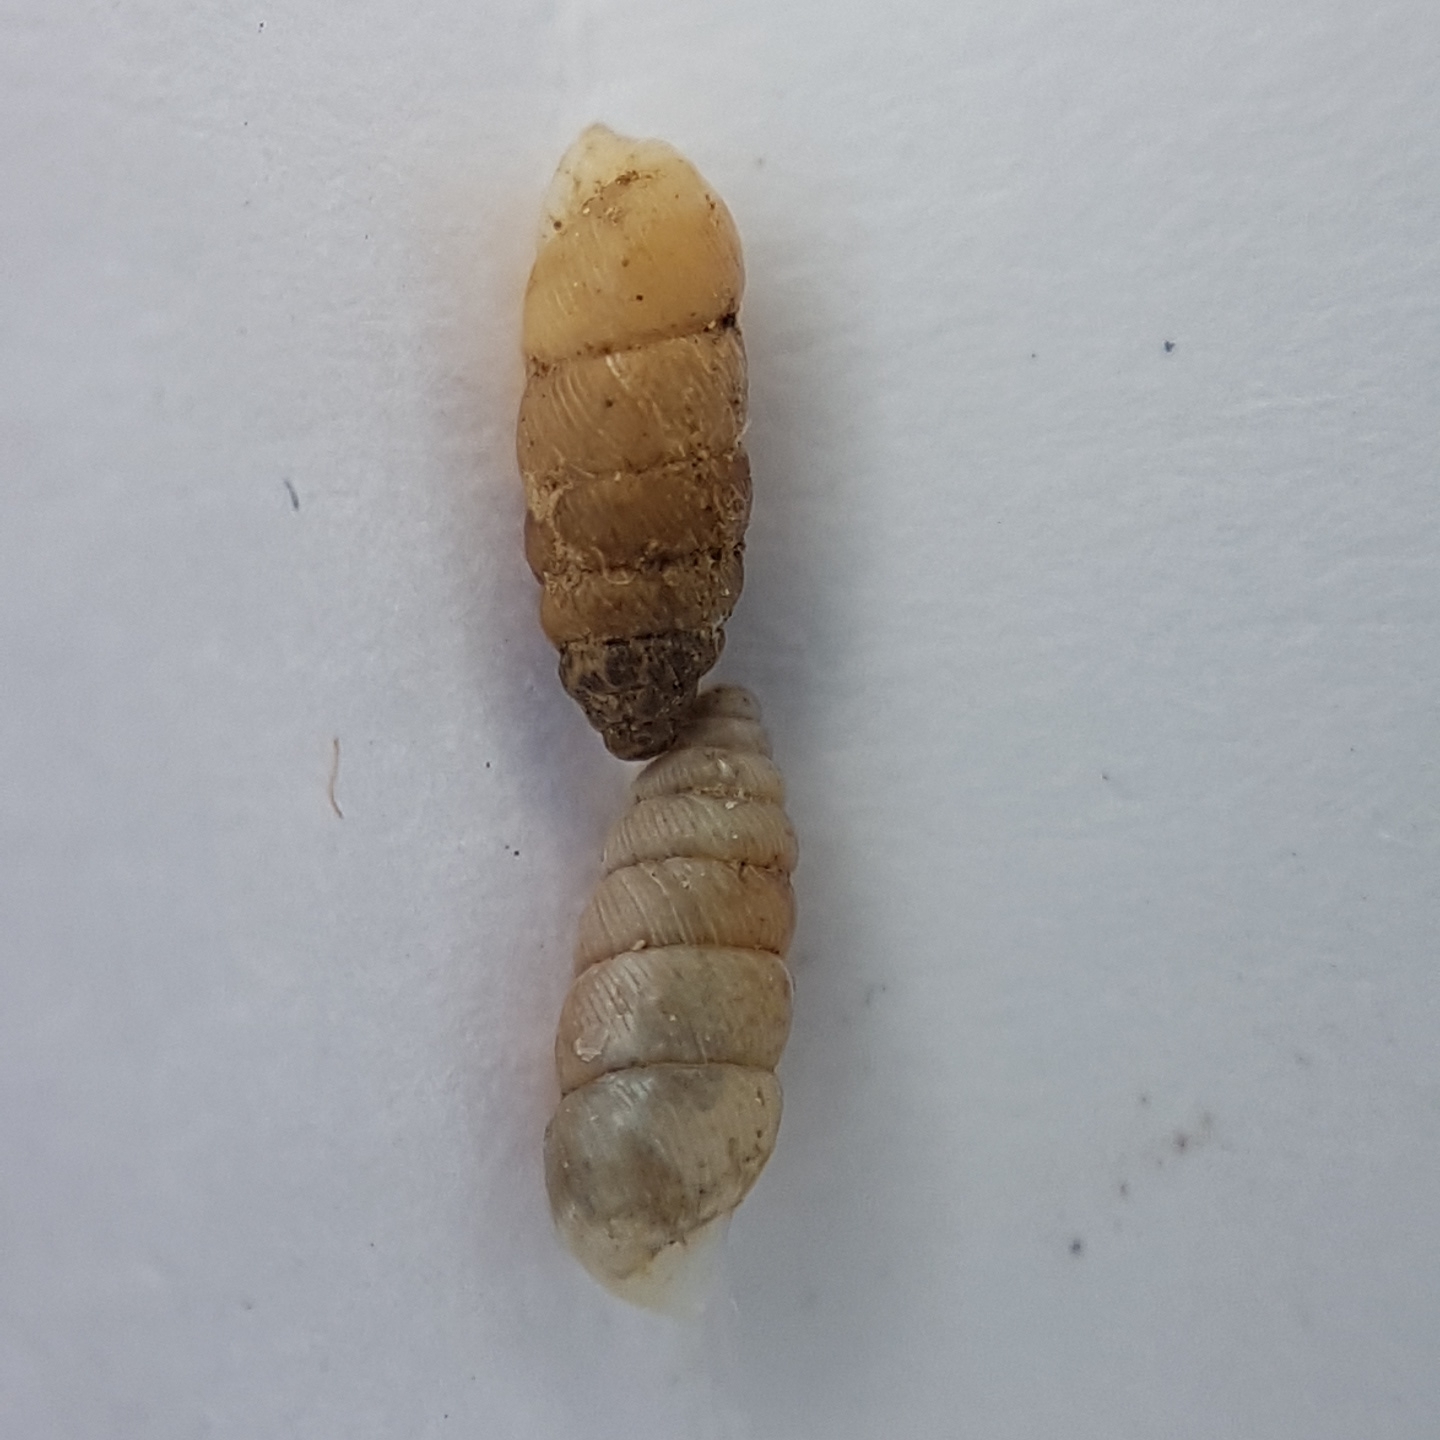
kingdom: Animalia
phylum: Mollusca
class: Gastropoda
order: Stylommatophora
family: Chondrinidae
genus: Granopupa
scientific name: Granopupa granum
